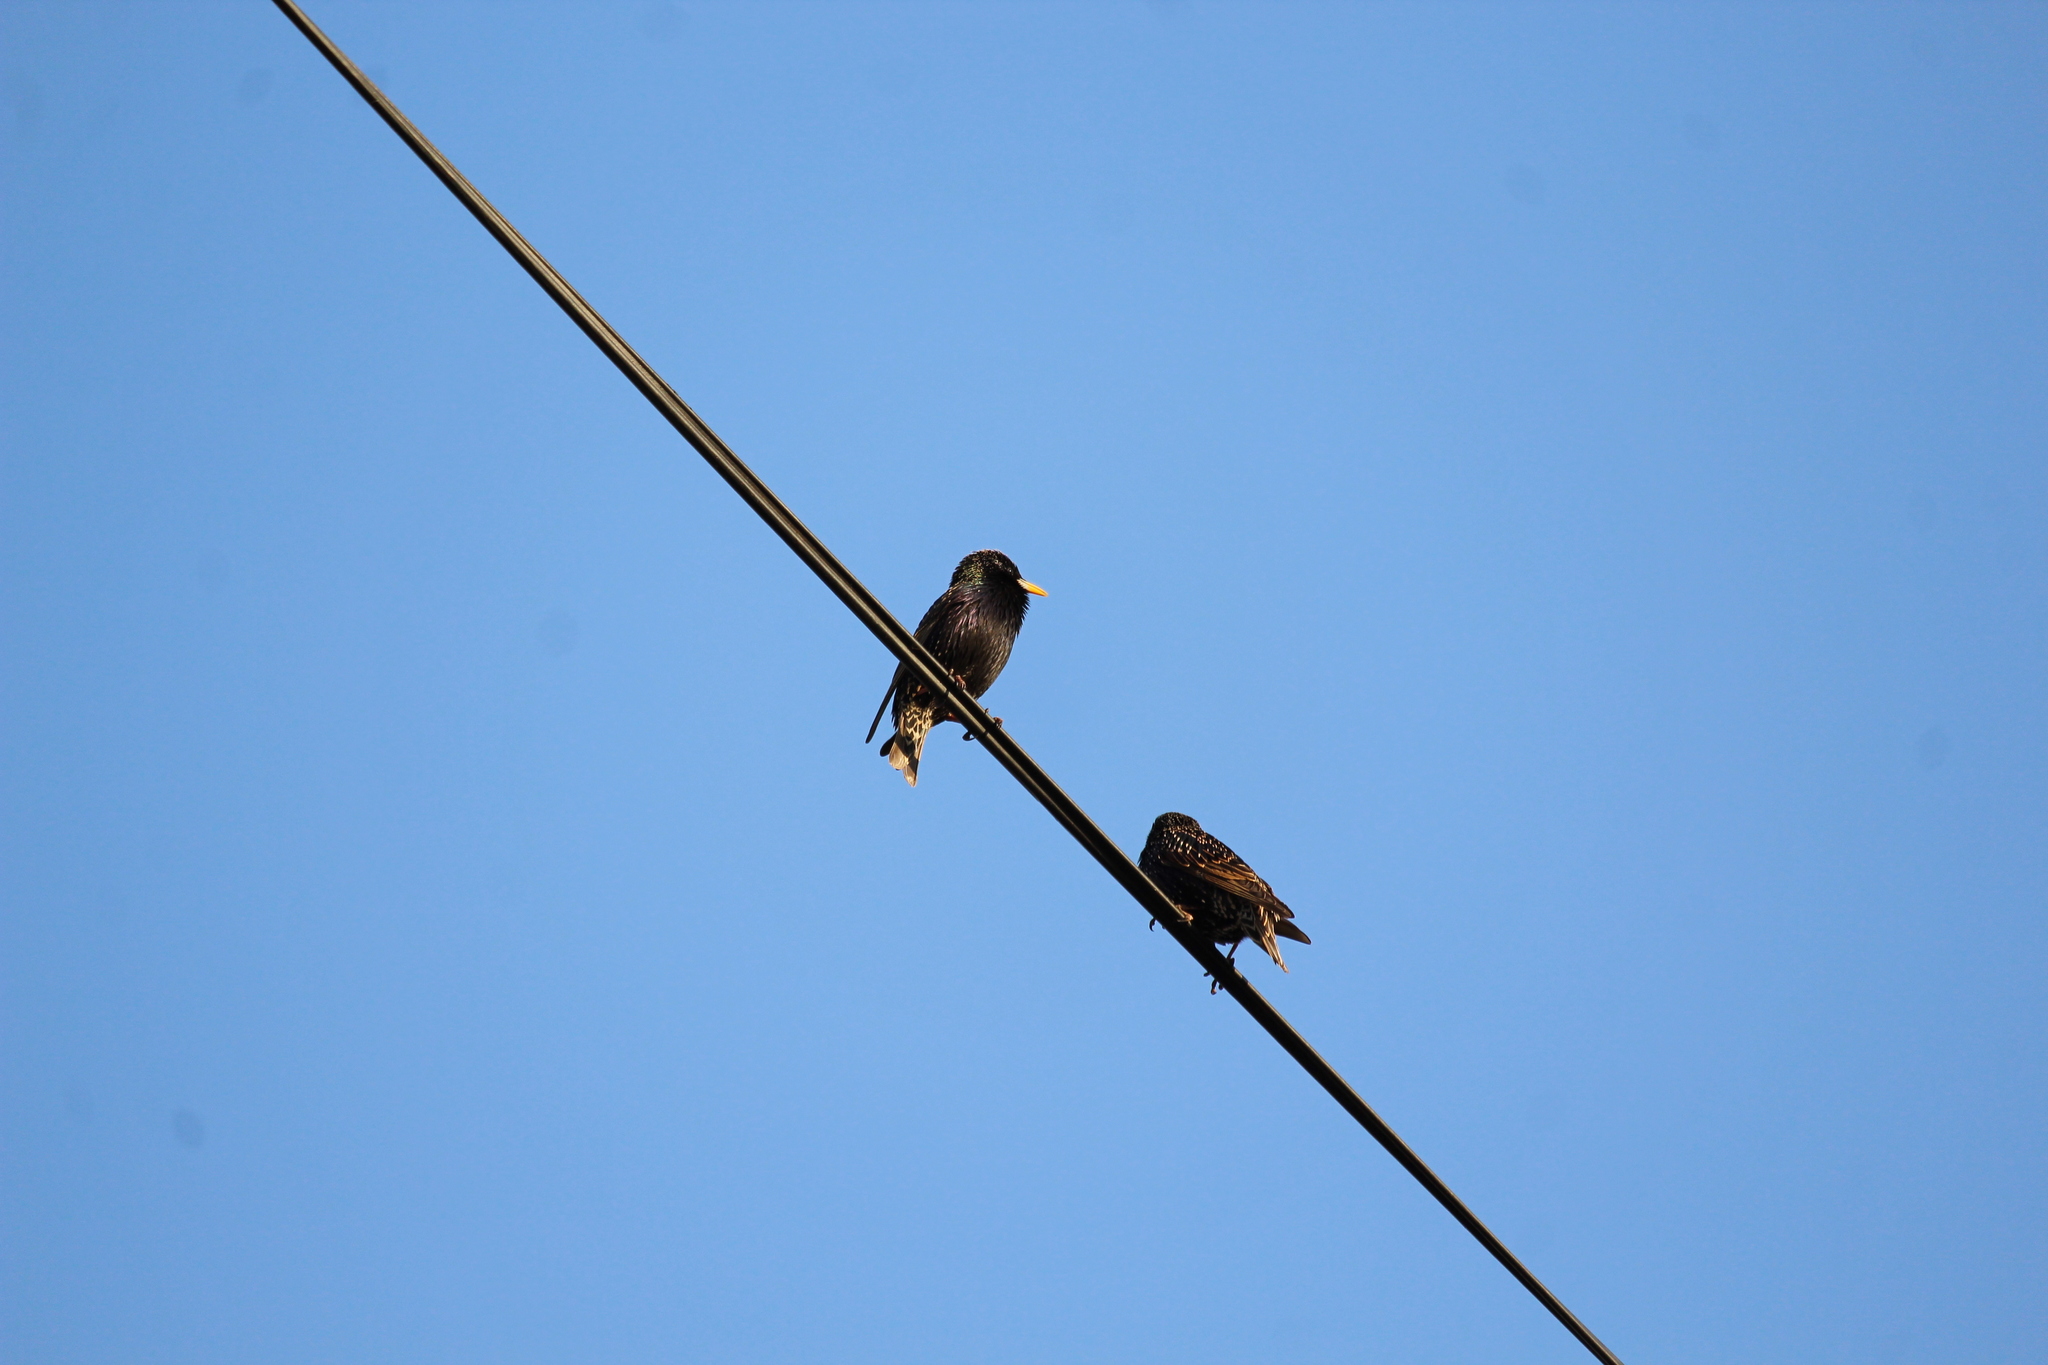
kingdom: Animalia
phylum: Chordata
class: Aves
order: Passeriformes
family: Sturnidae
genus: Sturnus
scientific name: Sturnus vulgaris
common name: Common starling
